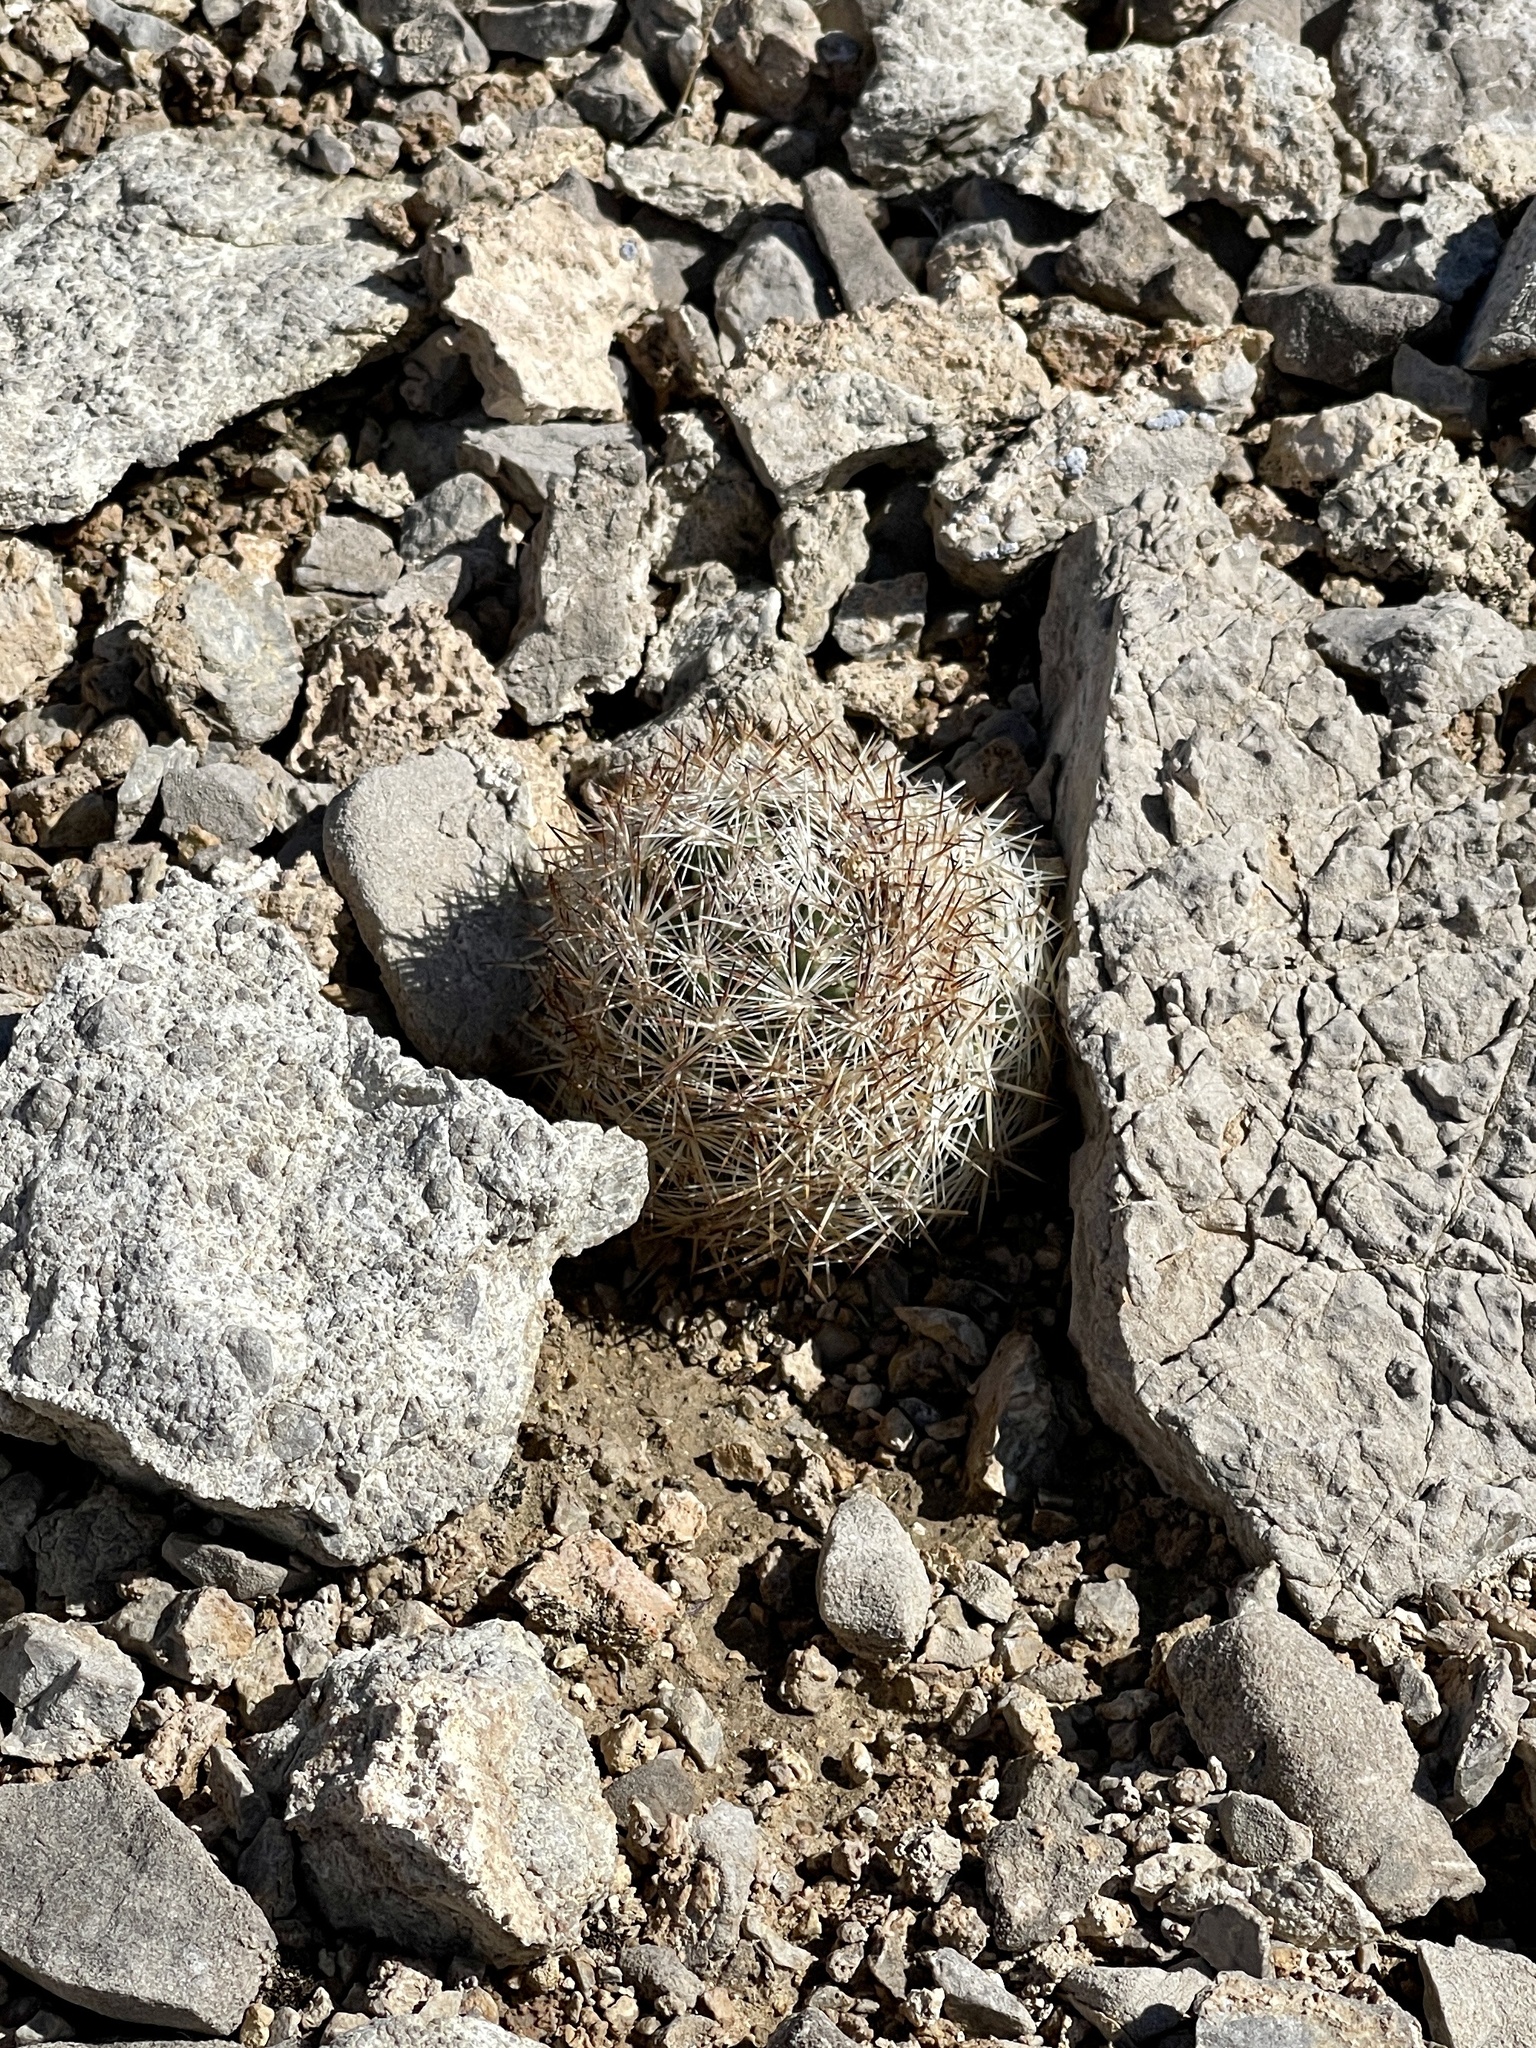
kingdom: Plantae
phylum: Tracheophyta
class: Magnoliopsida
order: Caryophyllales
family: Cactaceae
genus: Pelecyphora
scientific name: Pelecyphora vivipara
